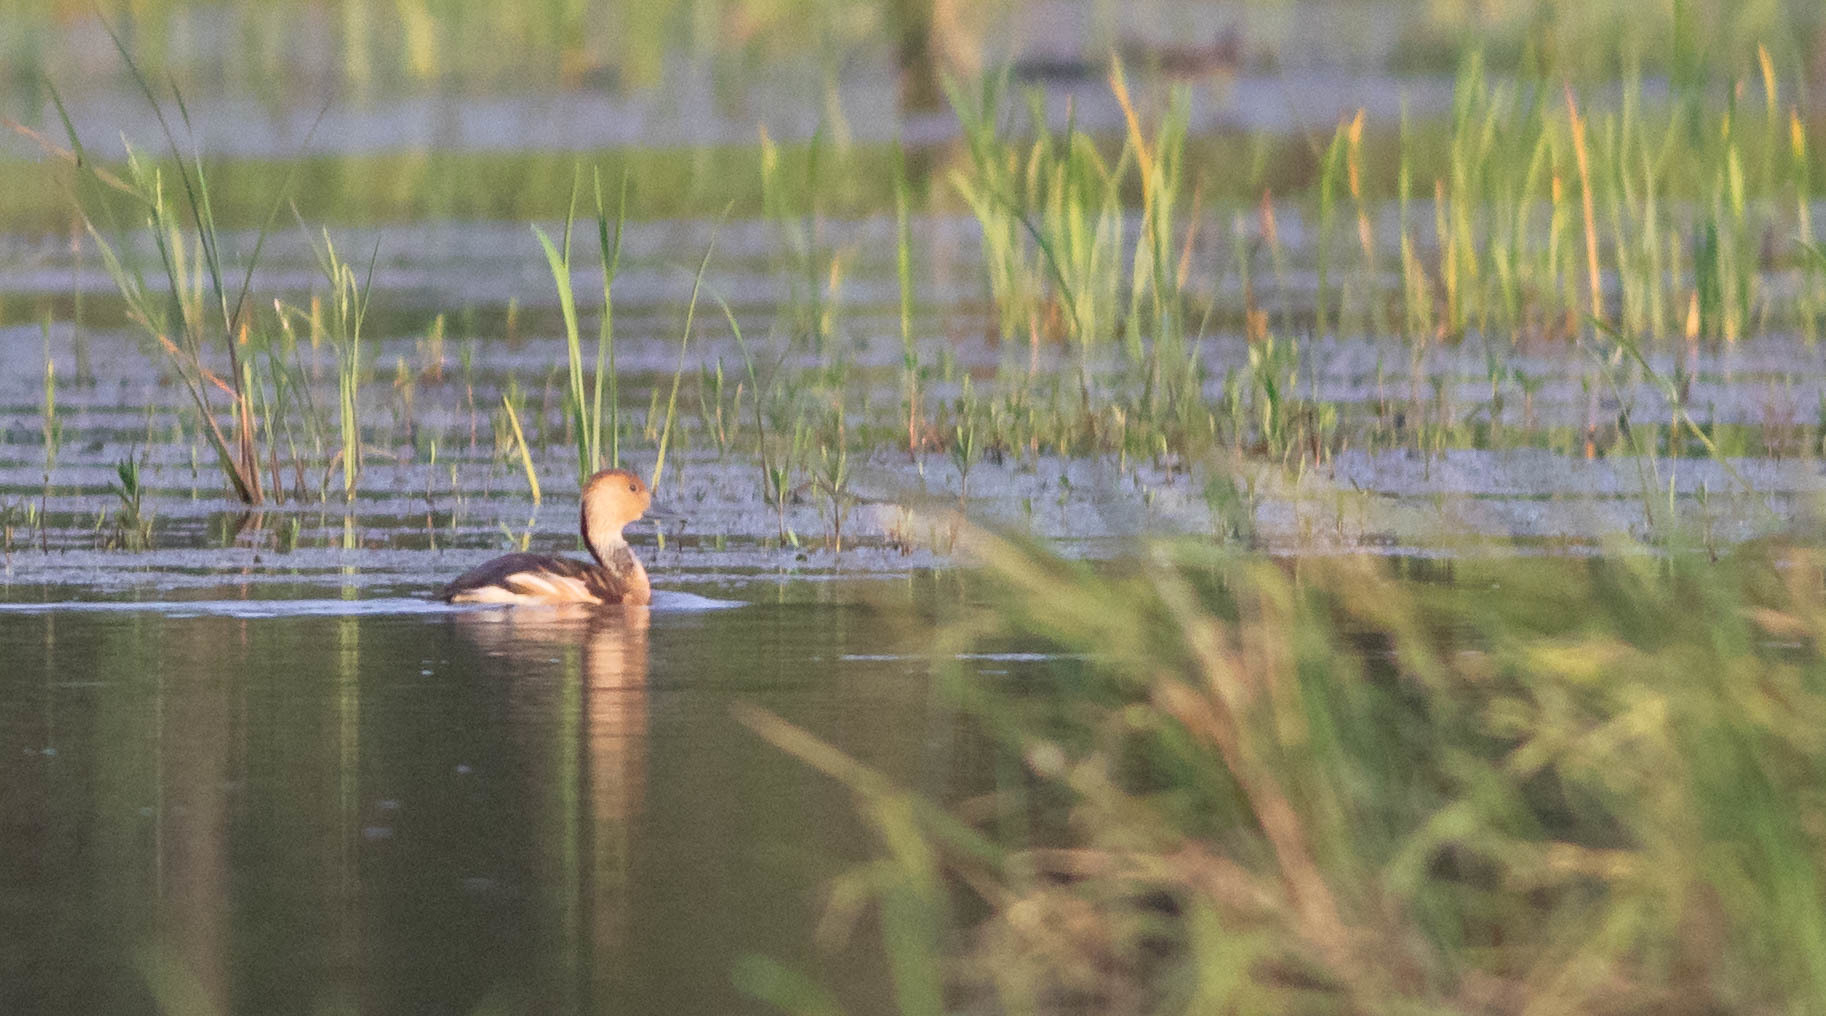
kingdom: Animalia
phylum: Chordata
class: Aves
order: Anseriformes
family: Anatidae
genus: Dendrocygna
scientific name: Dendrocygna bicolor
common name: Fulvous whistling duck
